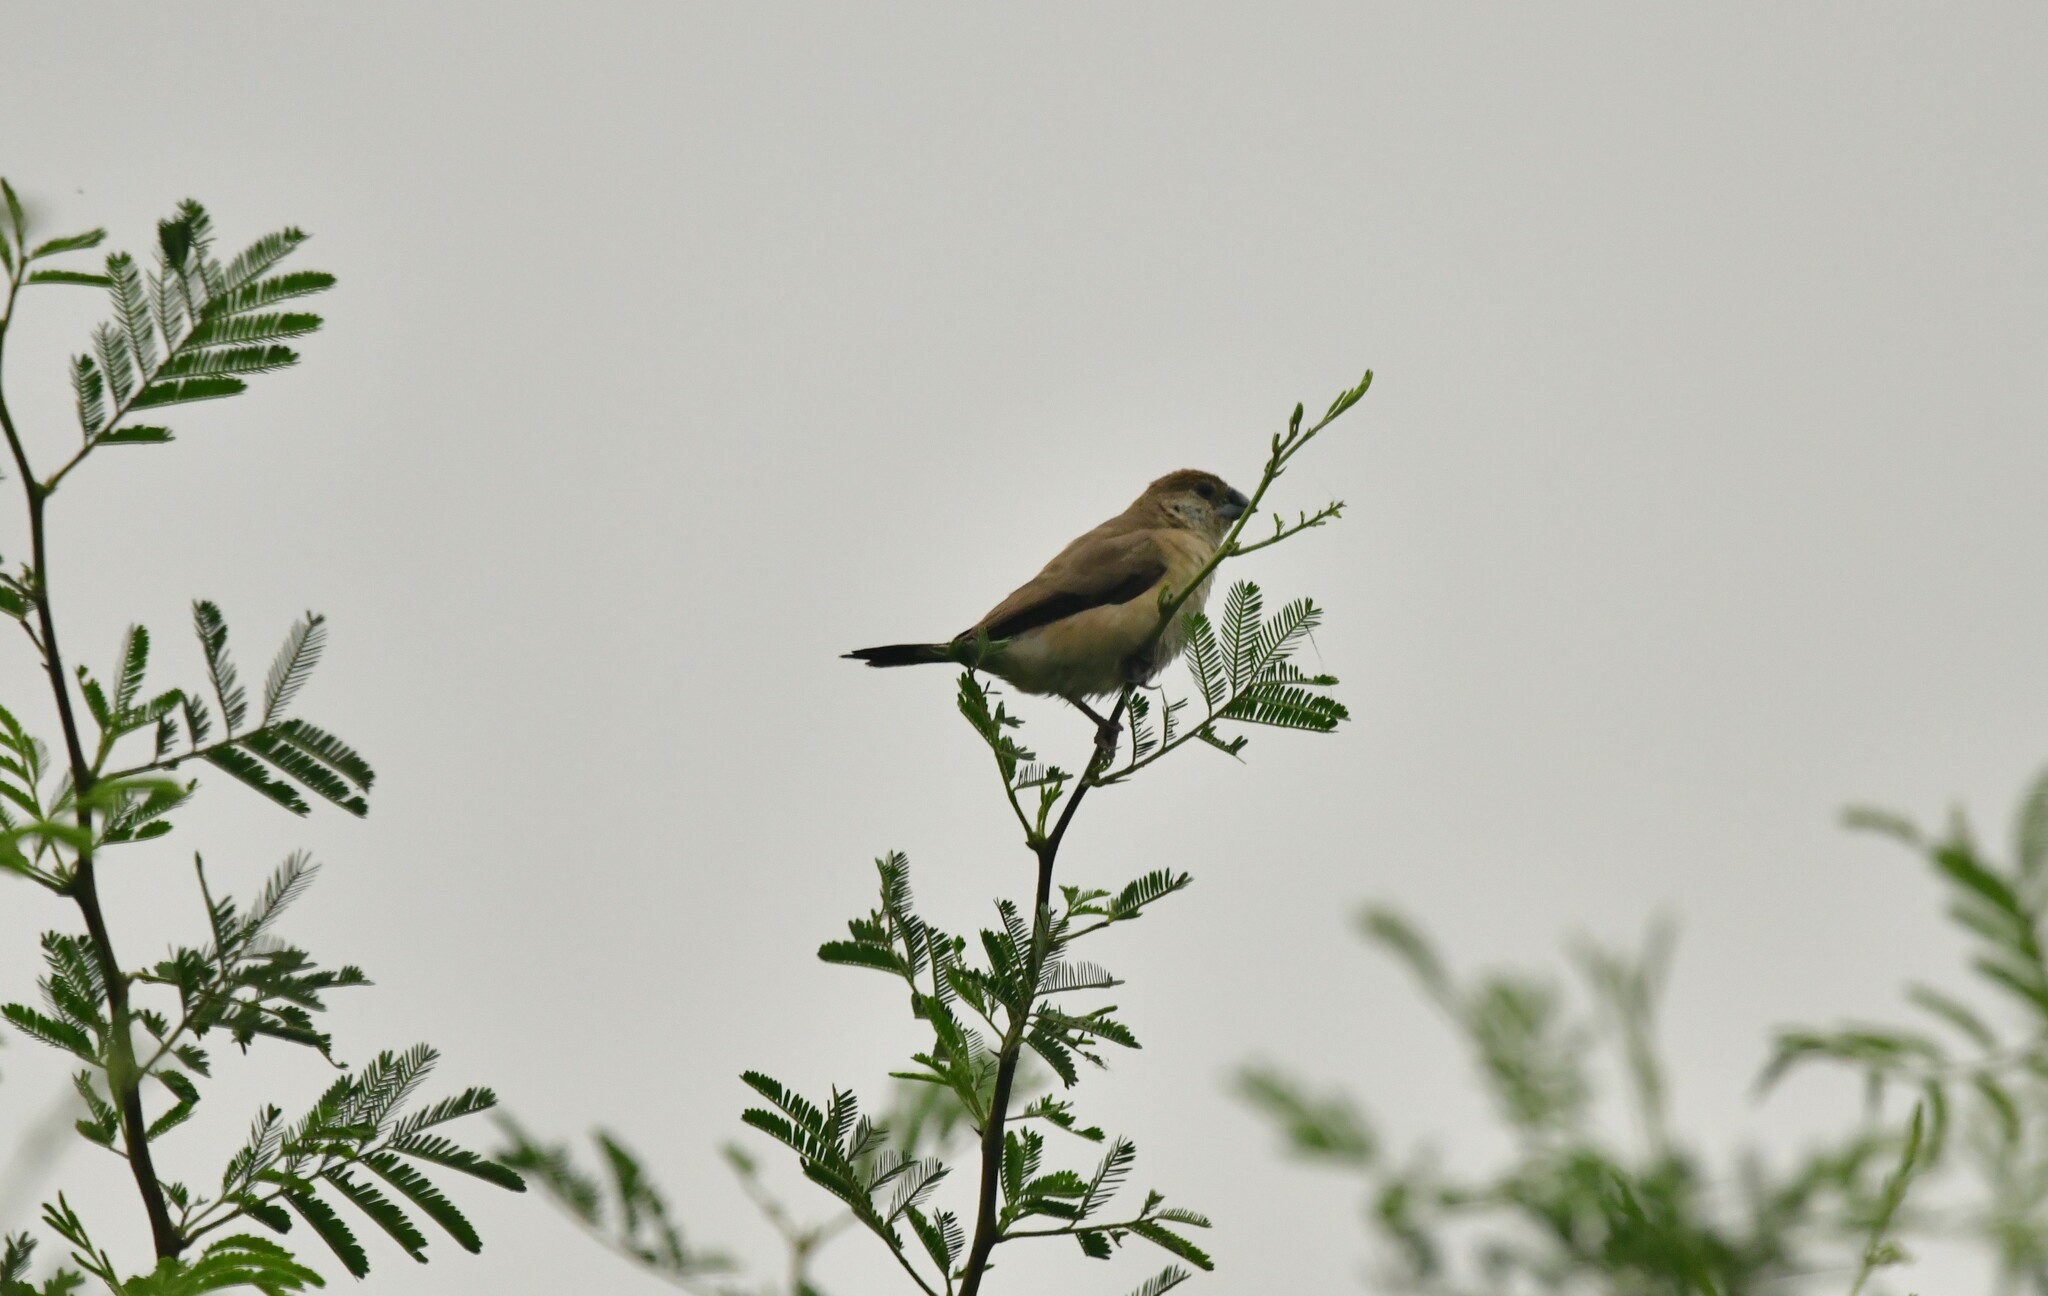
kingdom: Animalia
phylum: Chordata
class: Aves
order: Passeriformes
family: Estrildidae
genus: Euodice
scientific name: Euodice malabarica
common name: Indian silverbill
